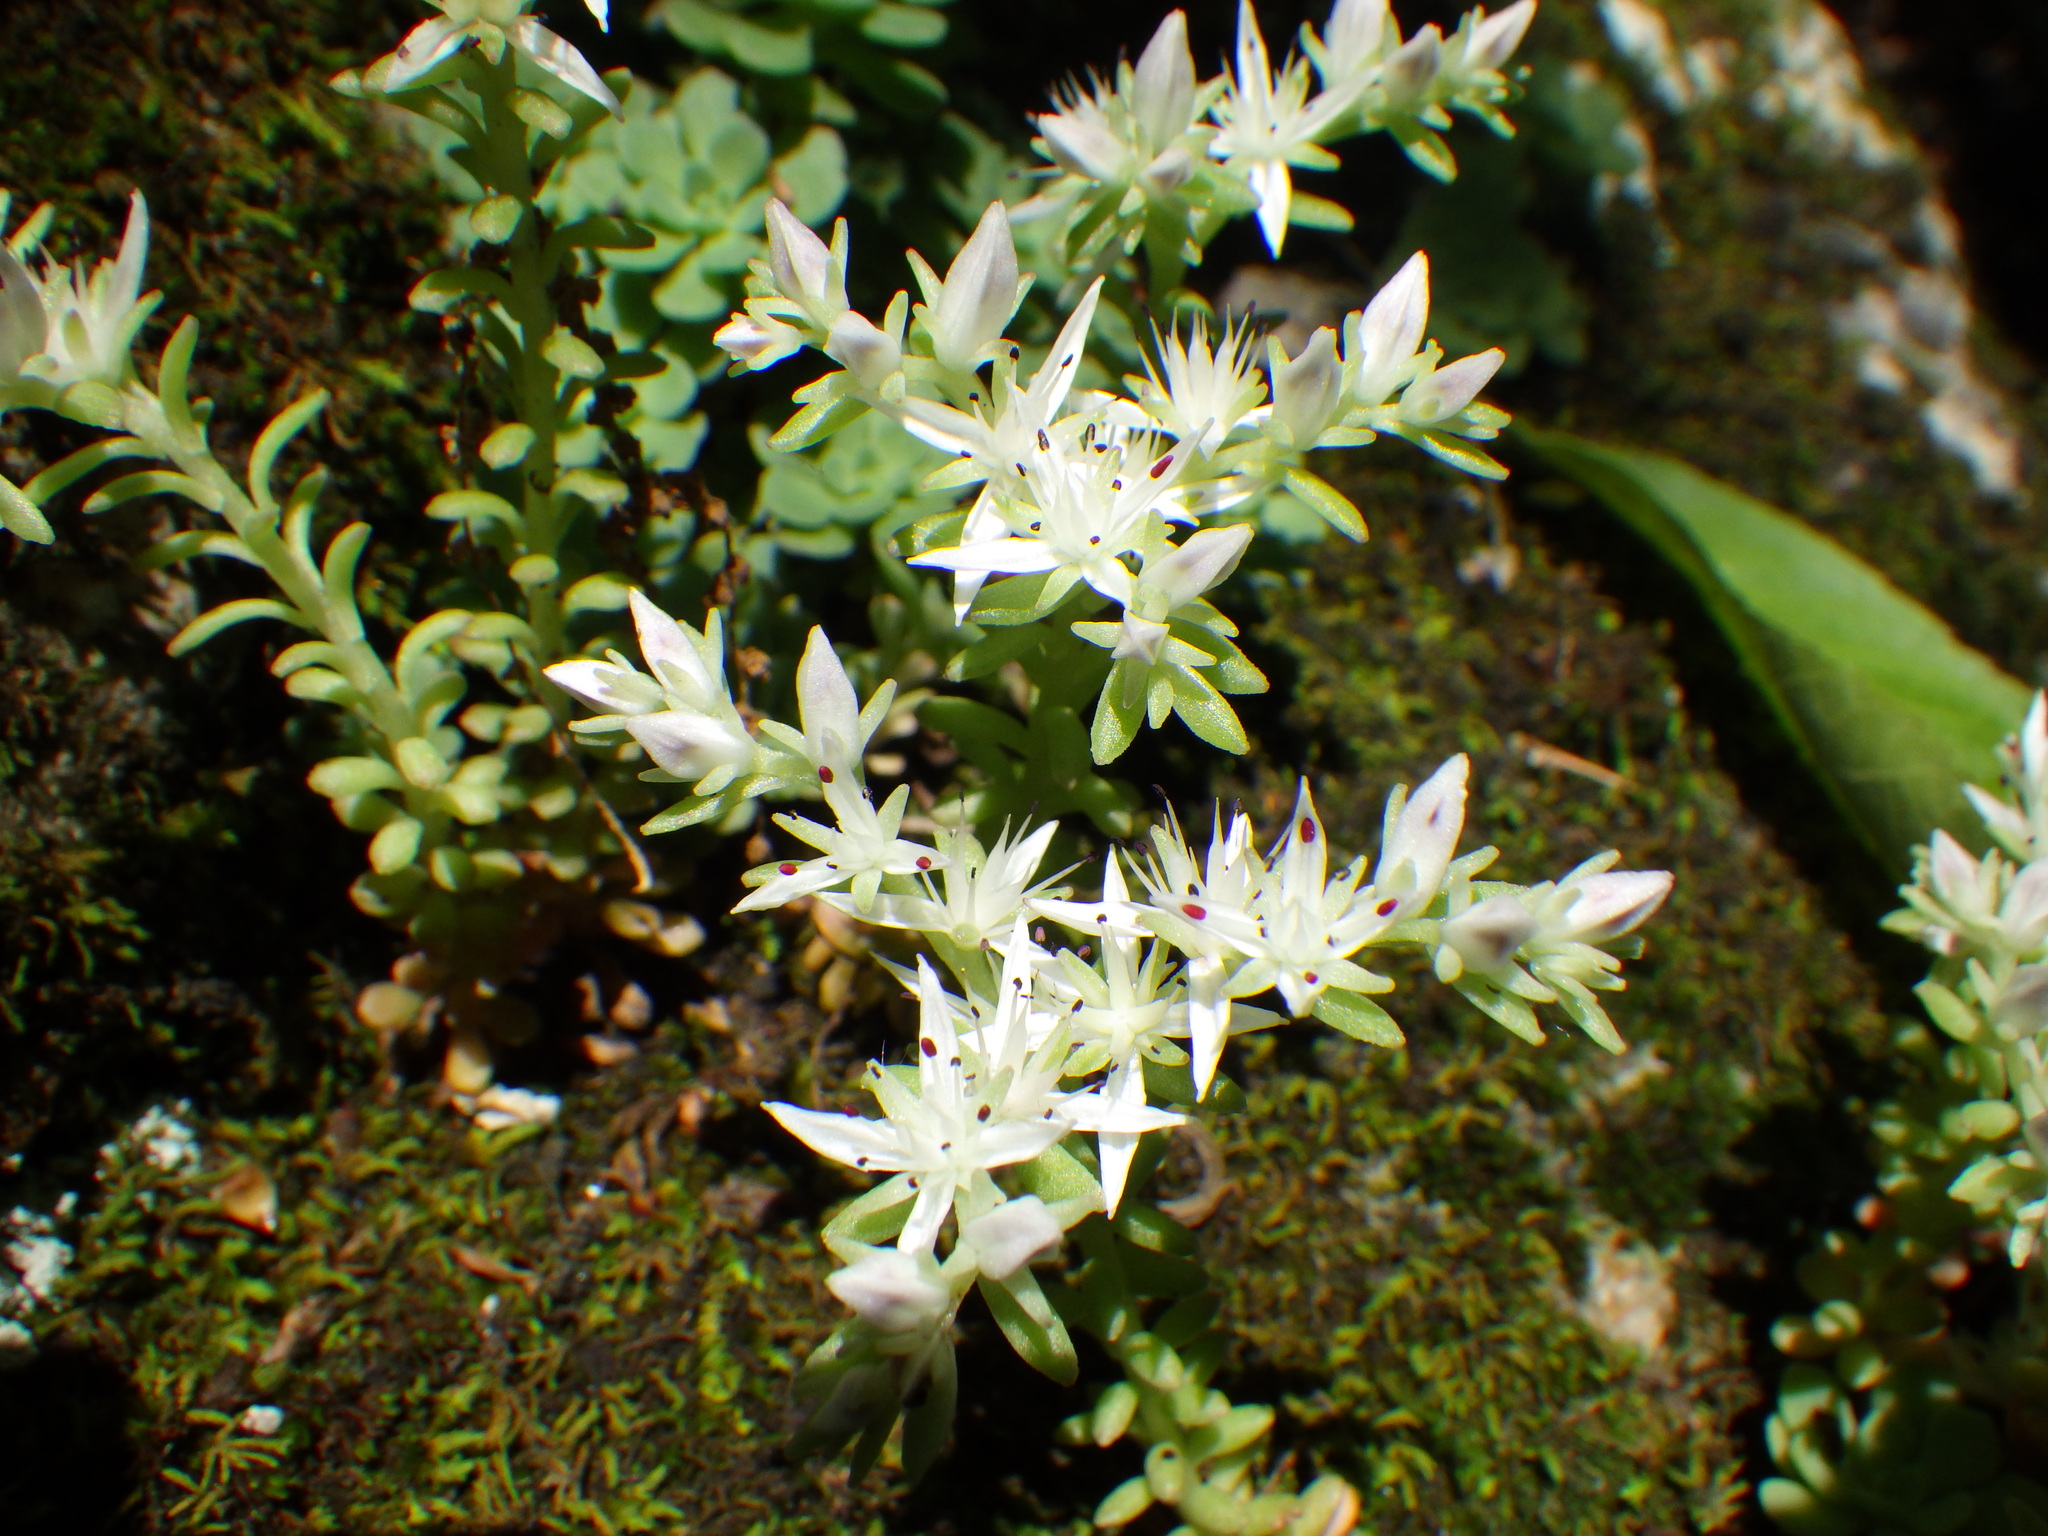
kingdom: Plantae
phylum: Tracheophyta
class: Magnoliopsida
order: Saxifragales
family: Crassulaceae
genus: Sedum
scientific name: Sedum glaucophyllum
